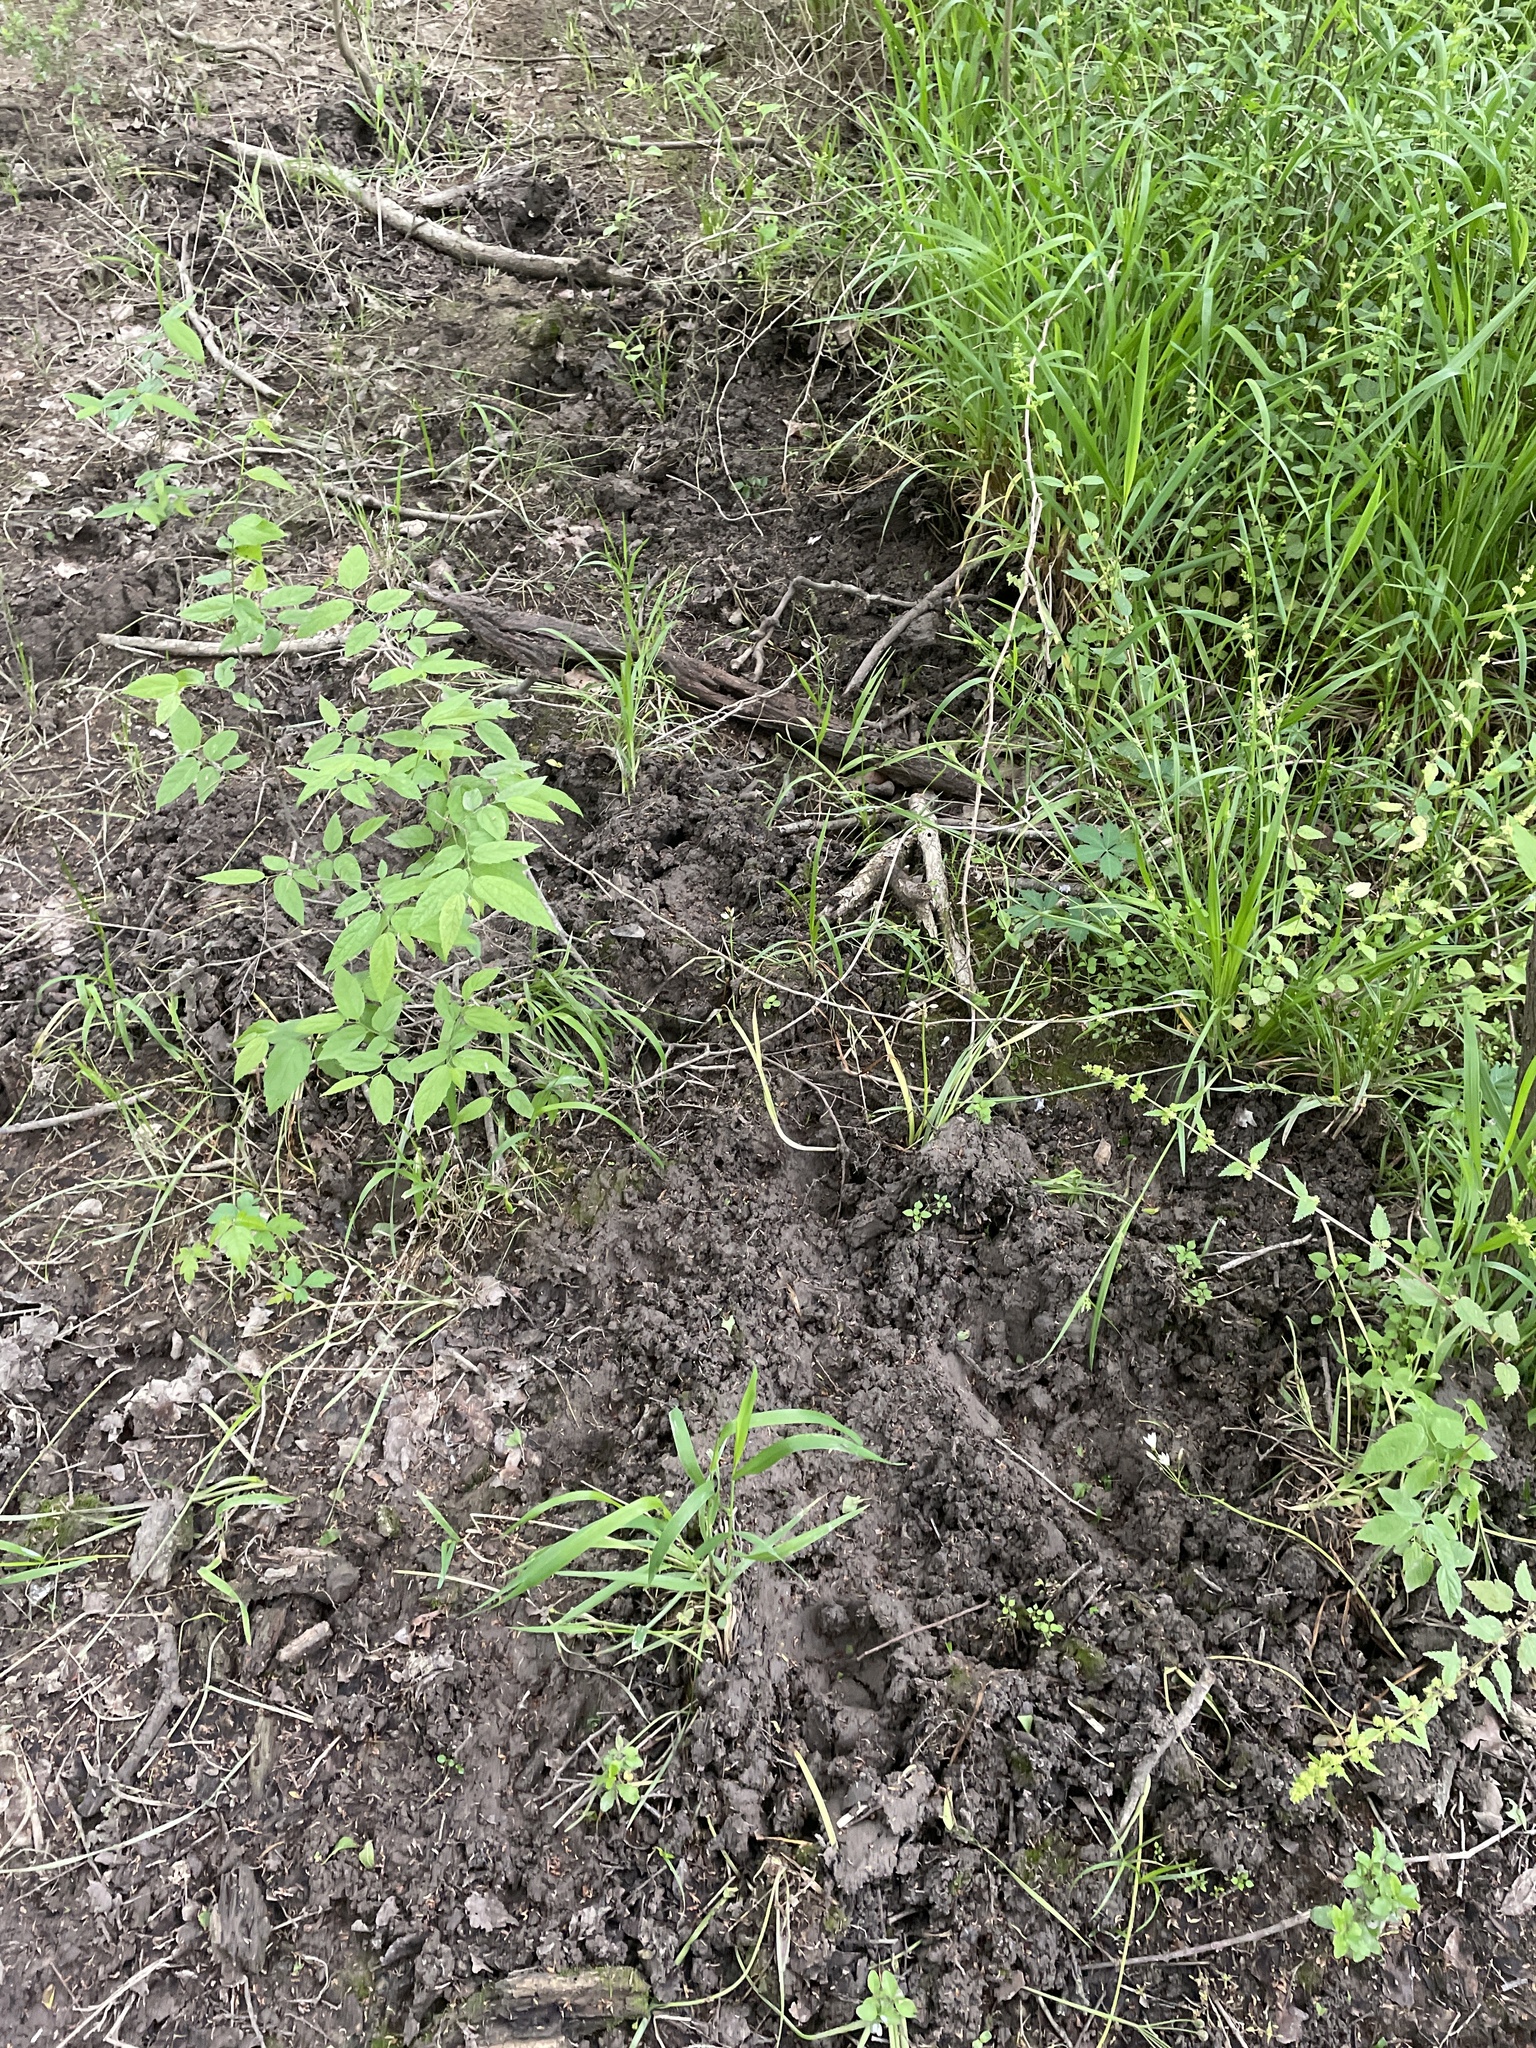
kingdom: Animalia
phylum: Chordata
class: Mammalia
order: Artiodactyla
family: Suidae
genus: Sus
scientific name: Sus scrofa
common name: Wild boar
